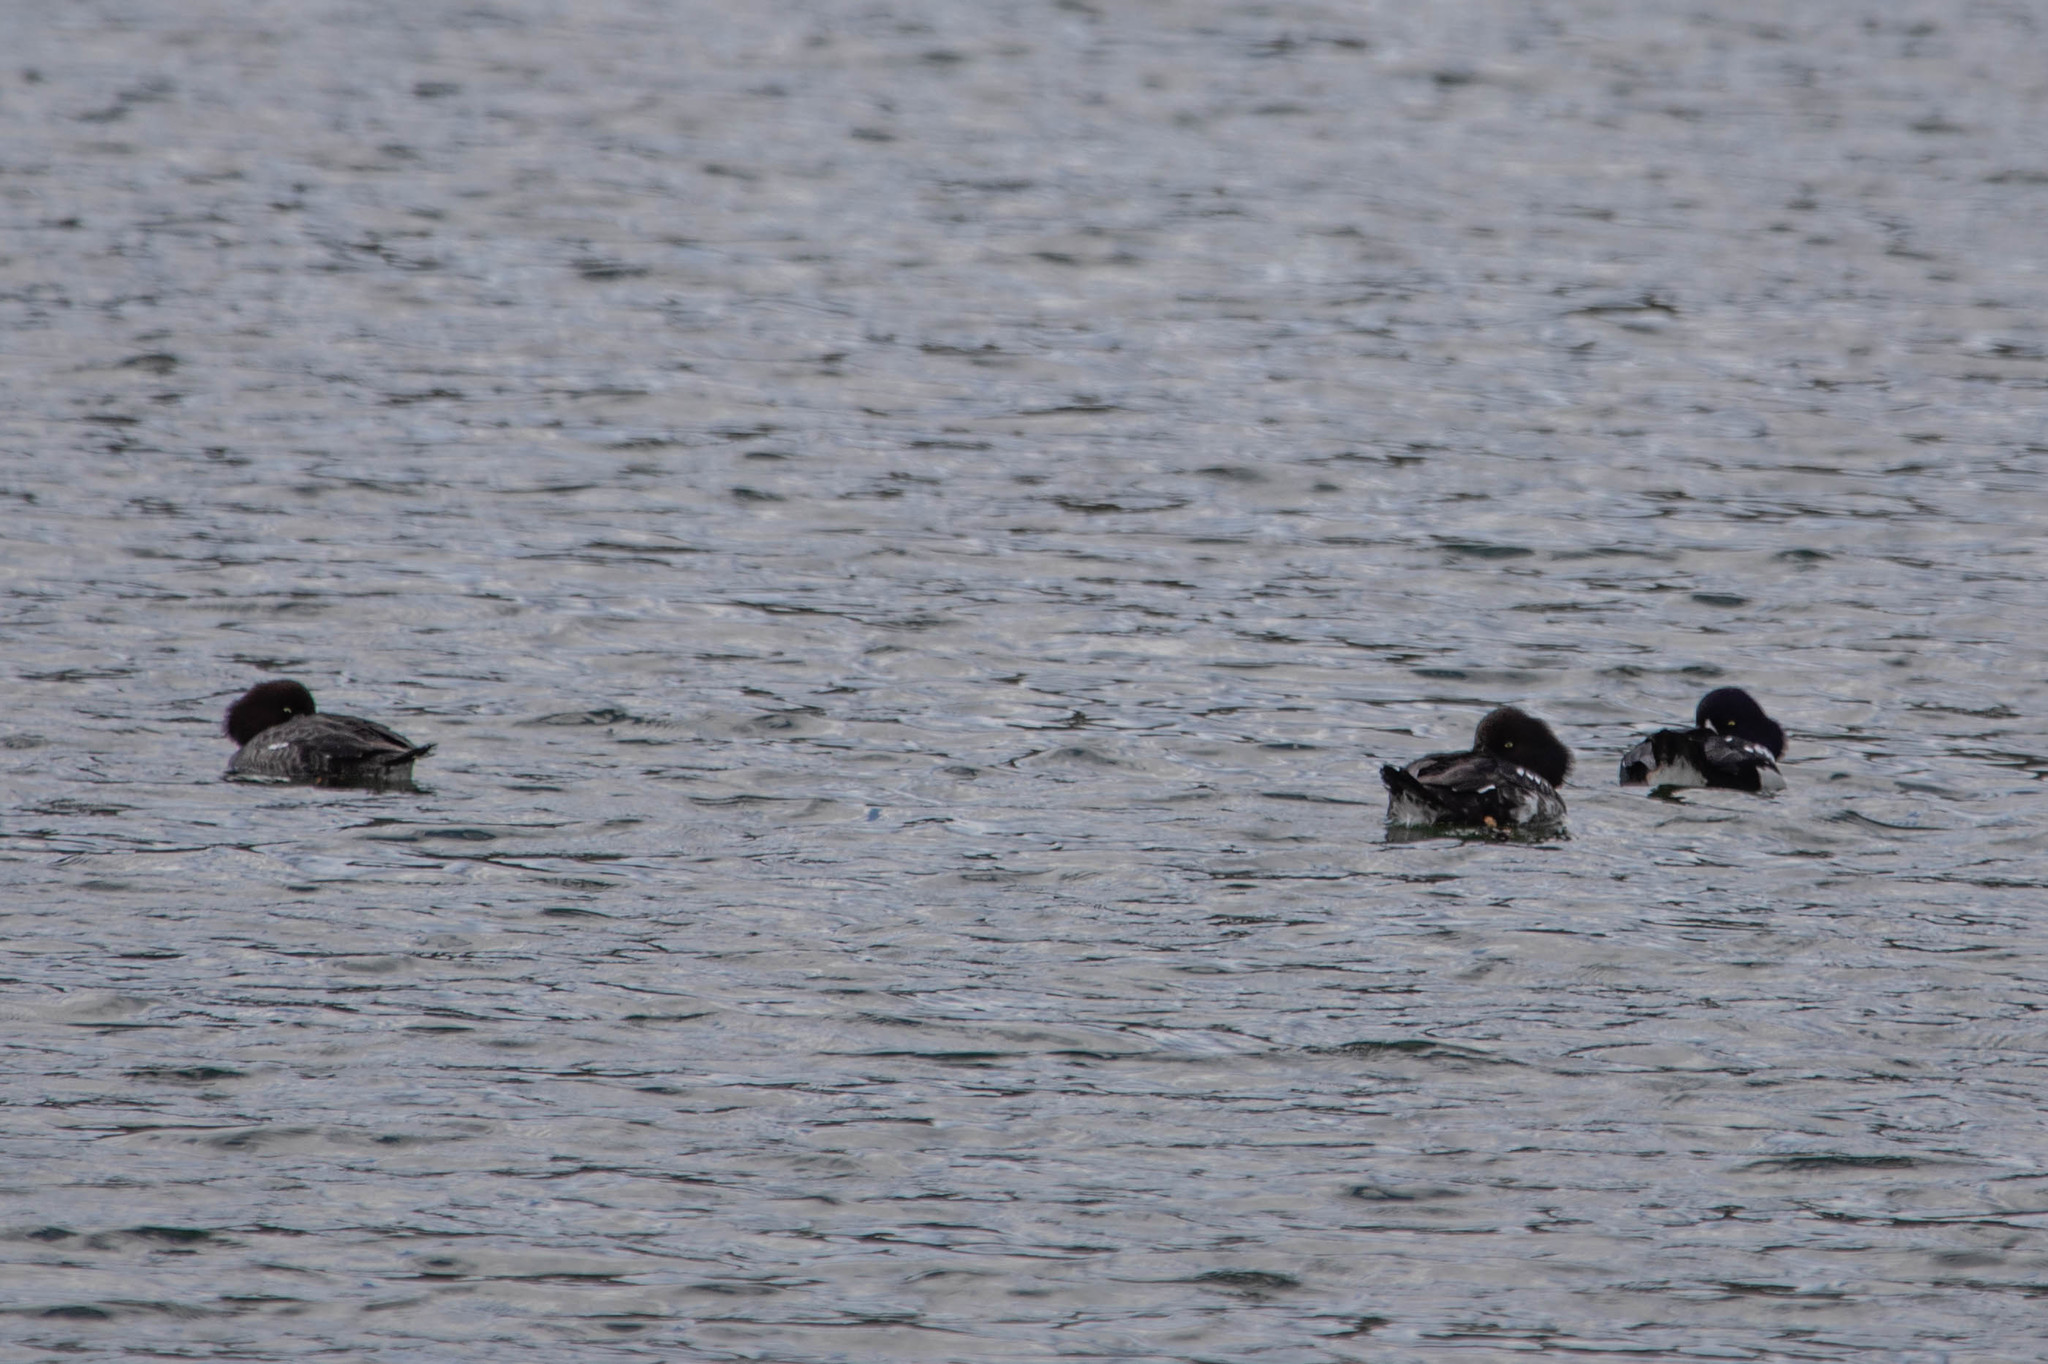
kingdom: Animalia
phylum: Chordata
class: Aves
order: Anseriformes
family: Anatidae
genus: Bucephala
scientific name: Bucephala islandica
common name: Barrow's goldeneye
